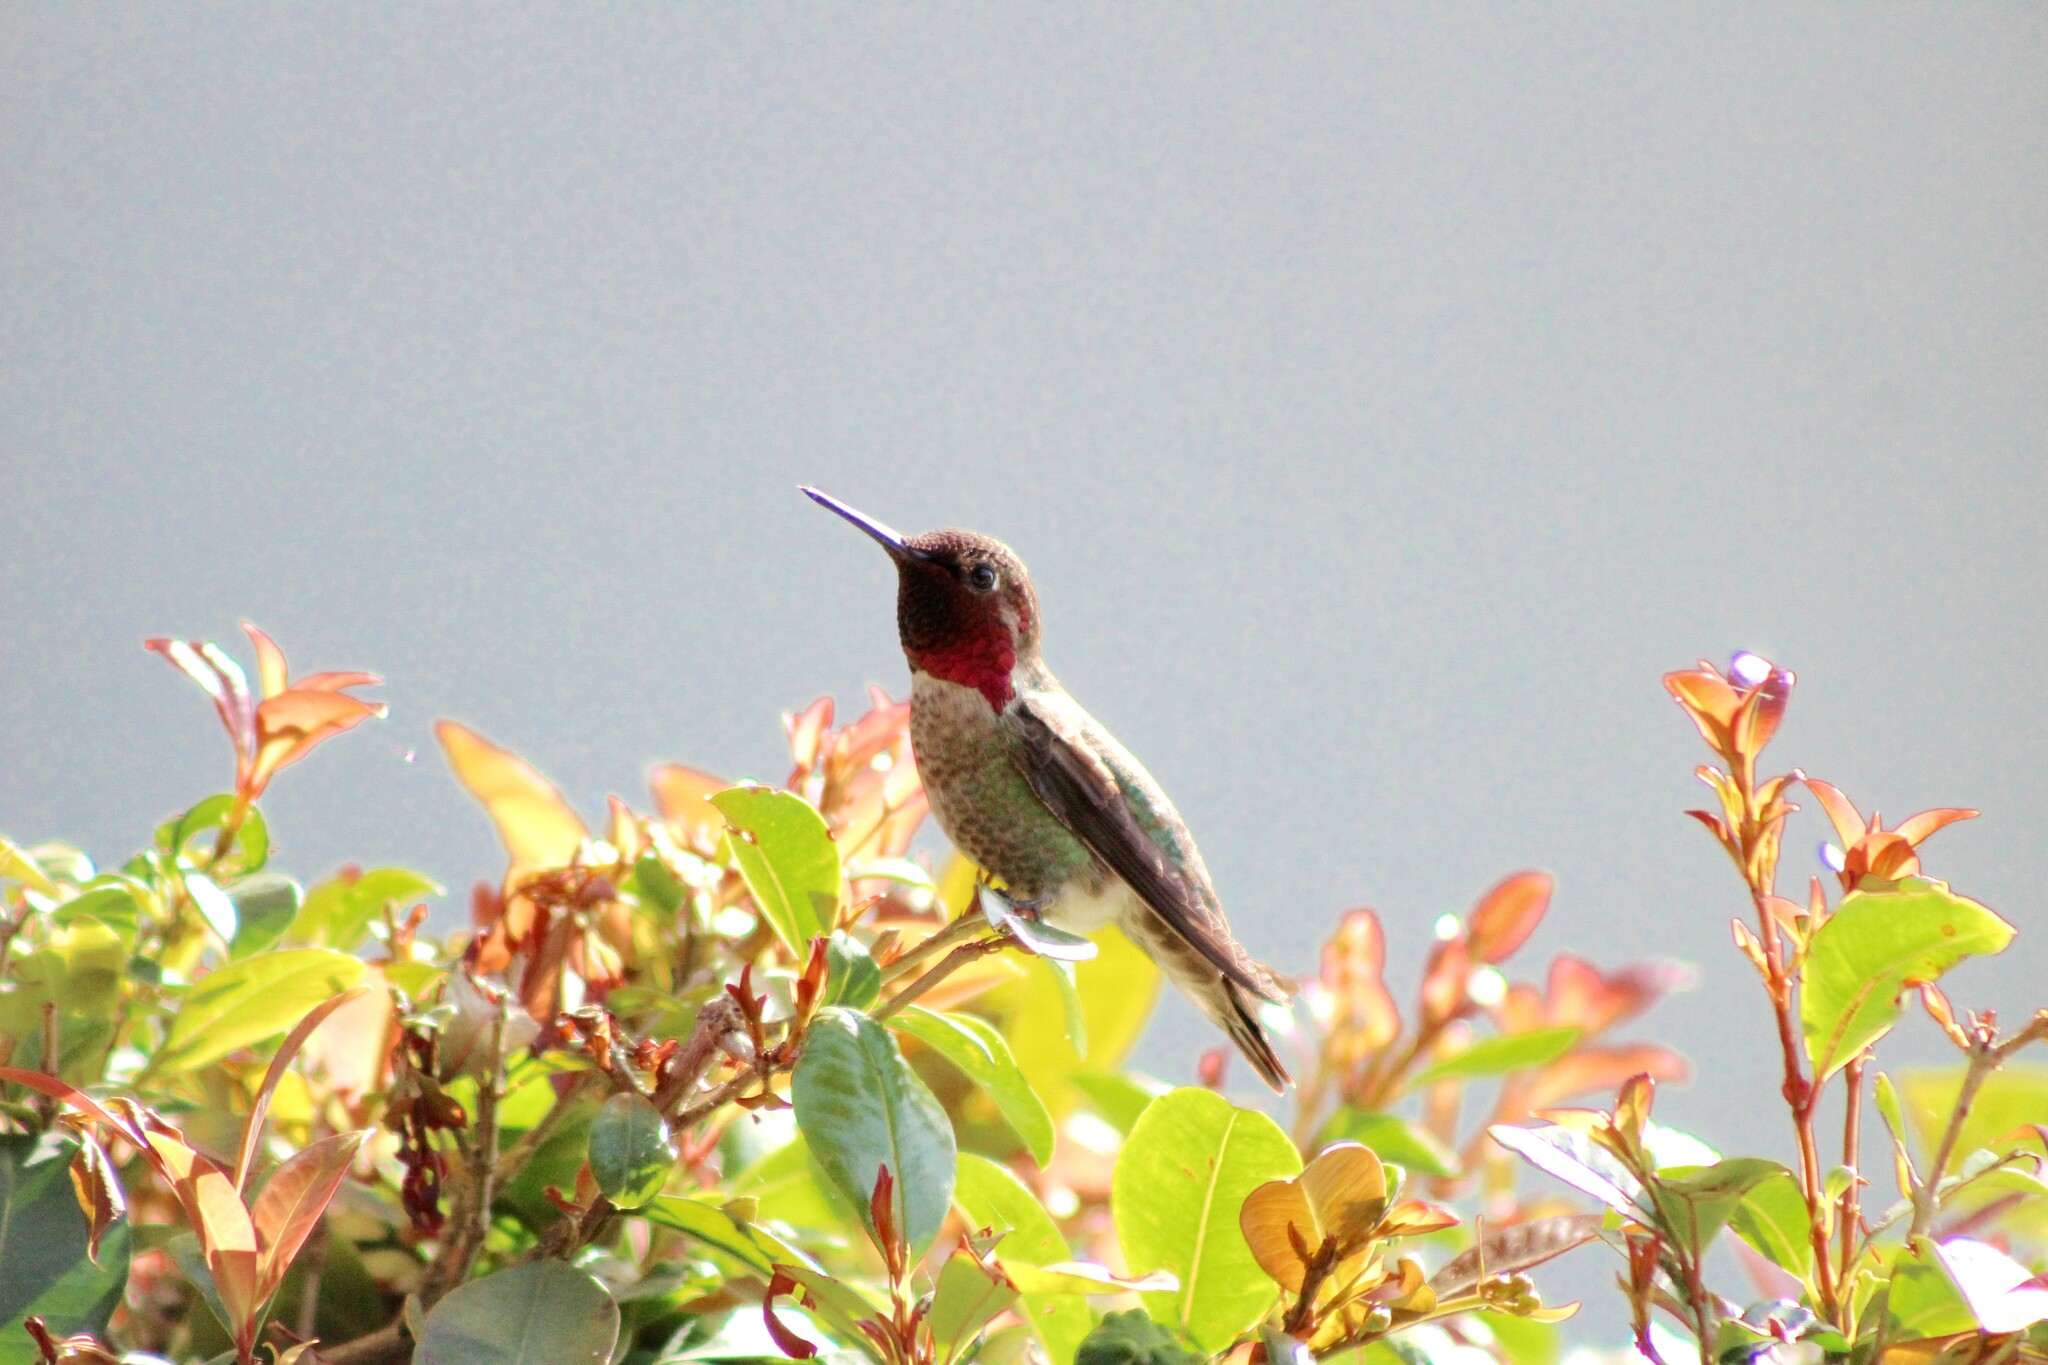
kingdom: Animalia
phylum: Chordata
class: Aves
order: Apodiformes
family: Trochilidae
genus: Calypte
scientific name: Calypte anna
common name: Anna's hummingbird
